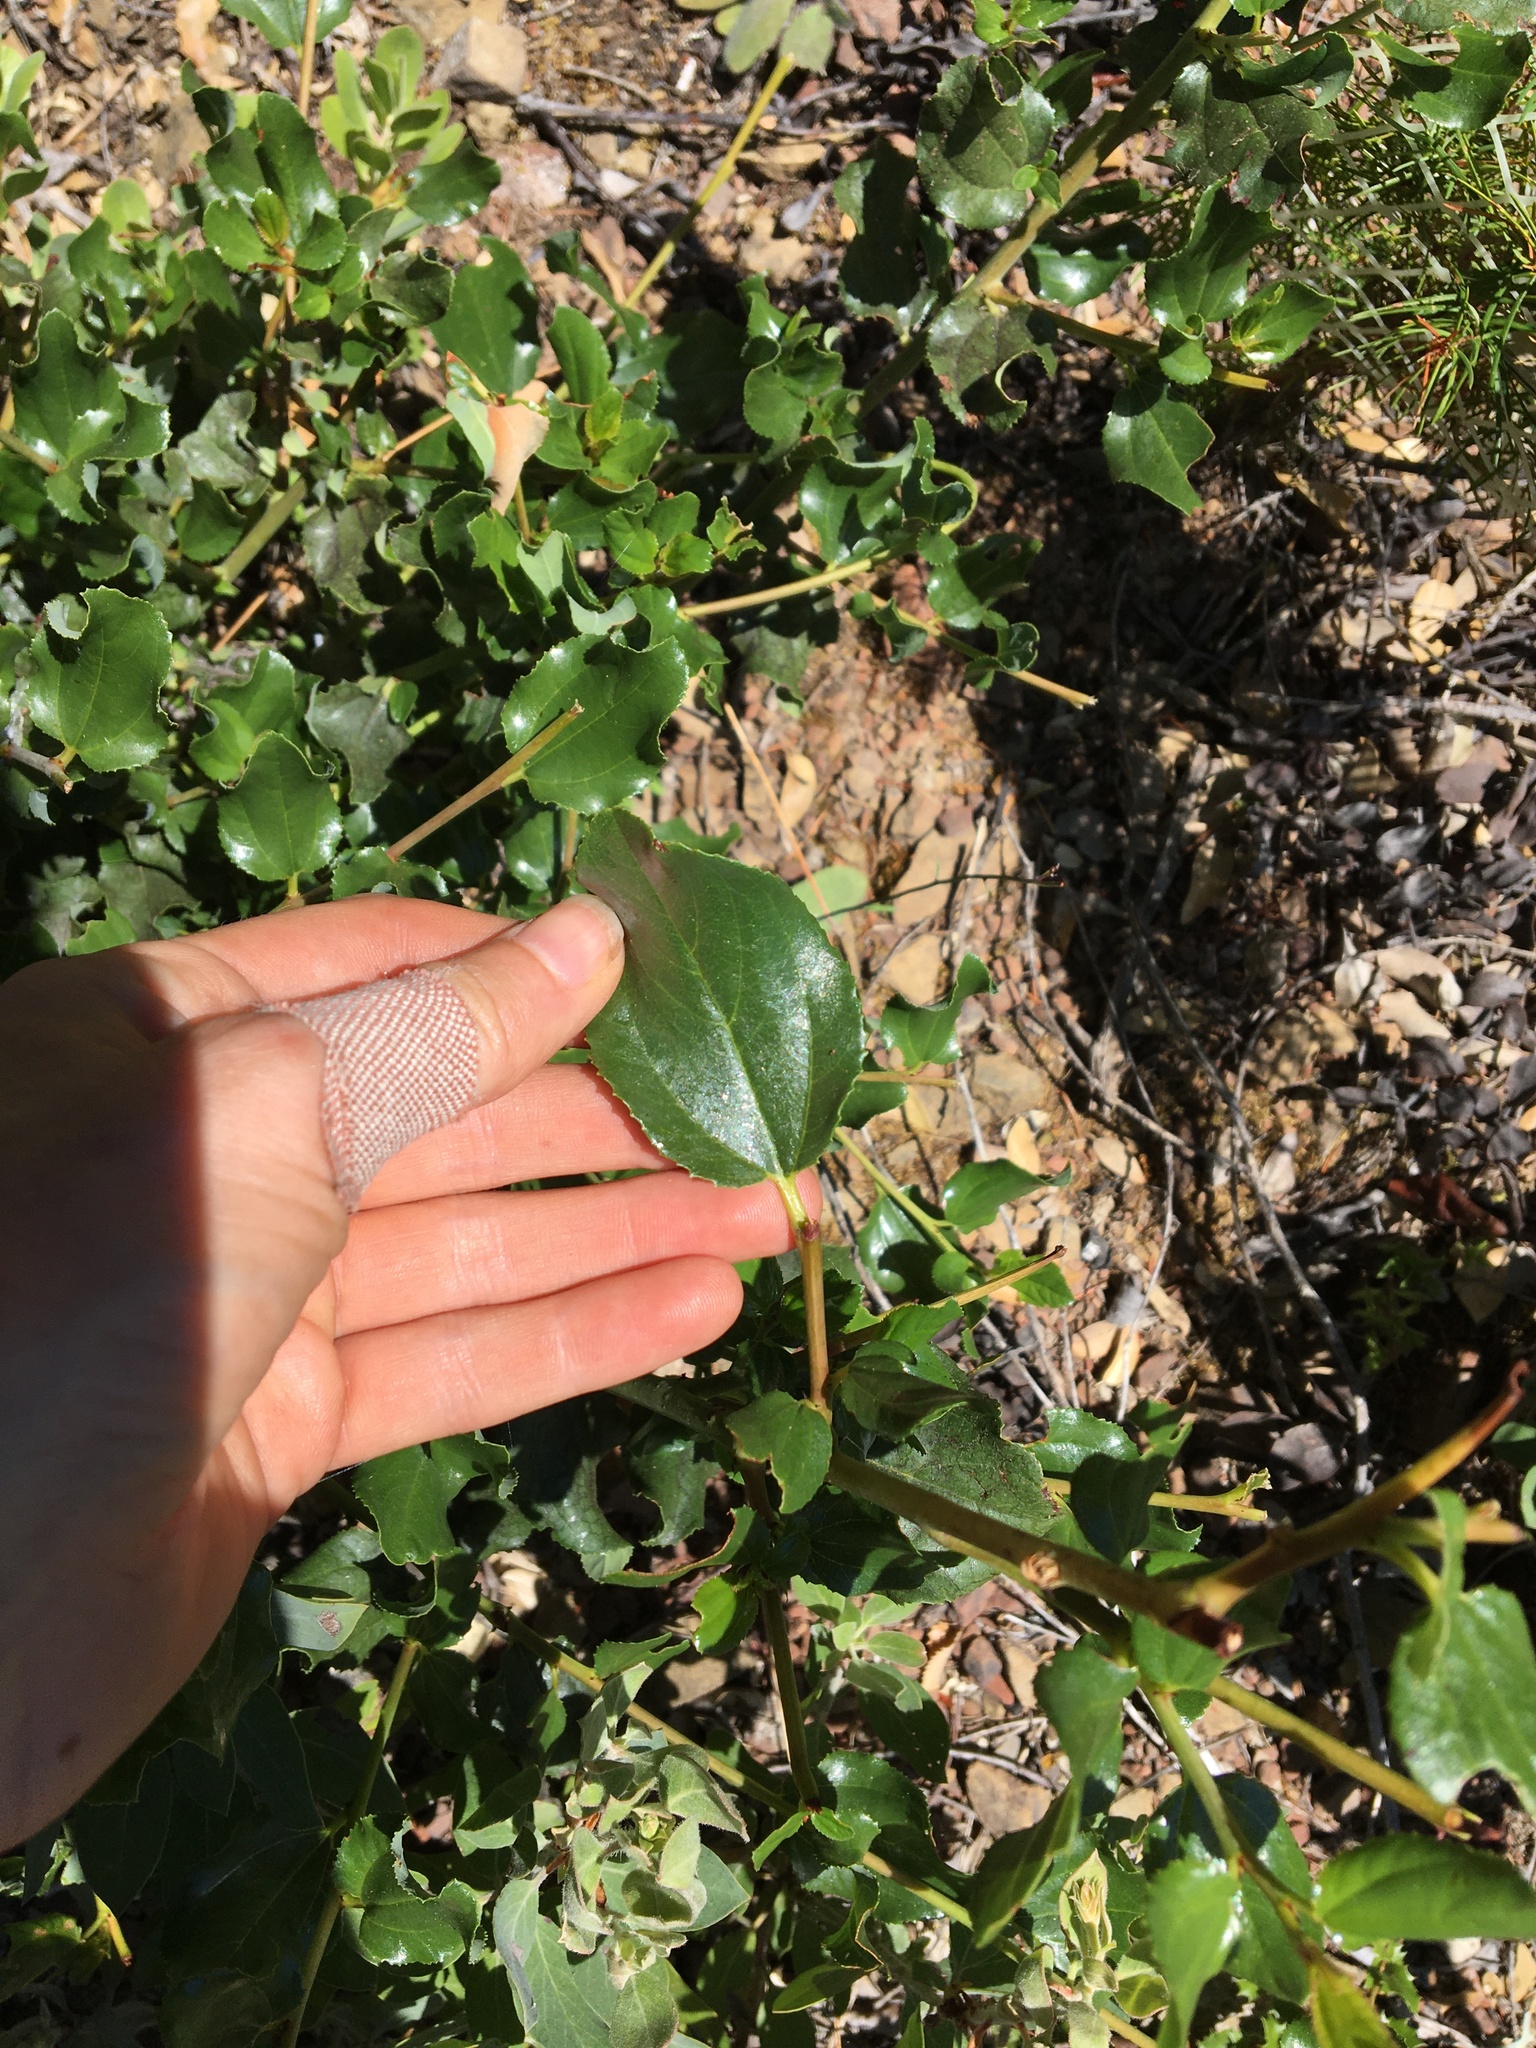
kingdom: Plantae
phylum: Tracheophyta
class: Magnoliopsida
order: Rosales
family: Rhamnaceae
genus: Ceanothus
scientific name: Ceanothus velutinus
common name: Snowbrush
